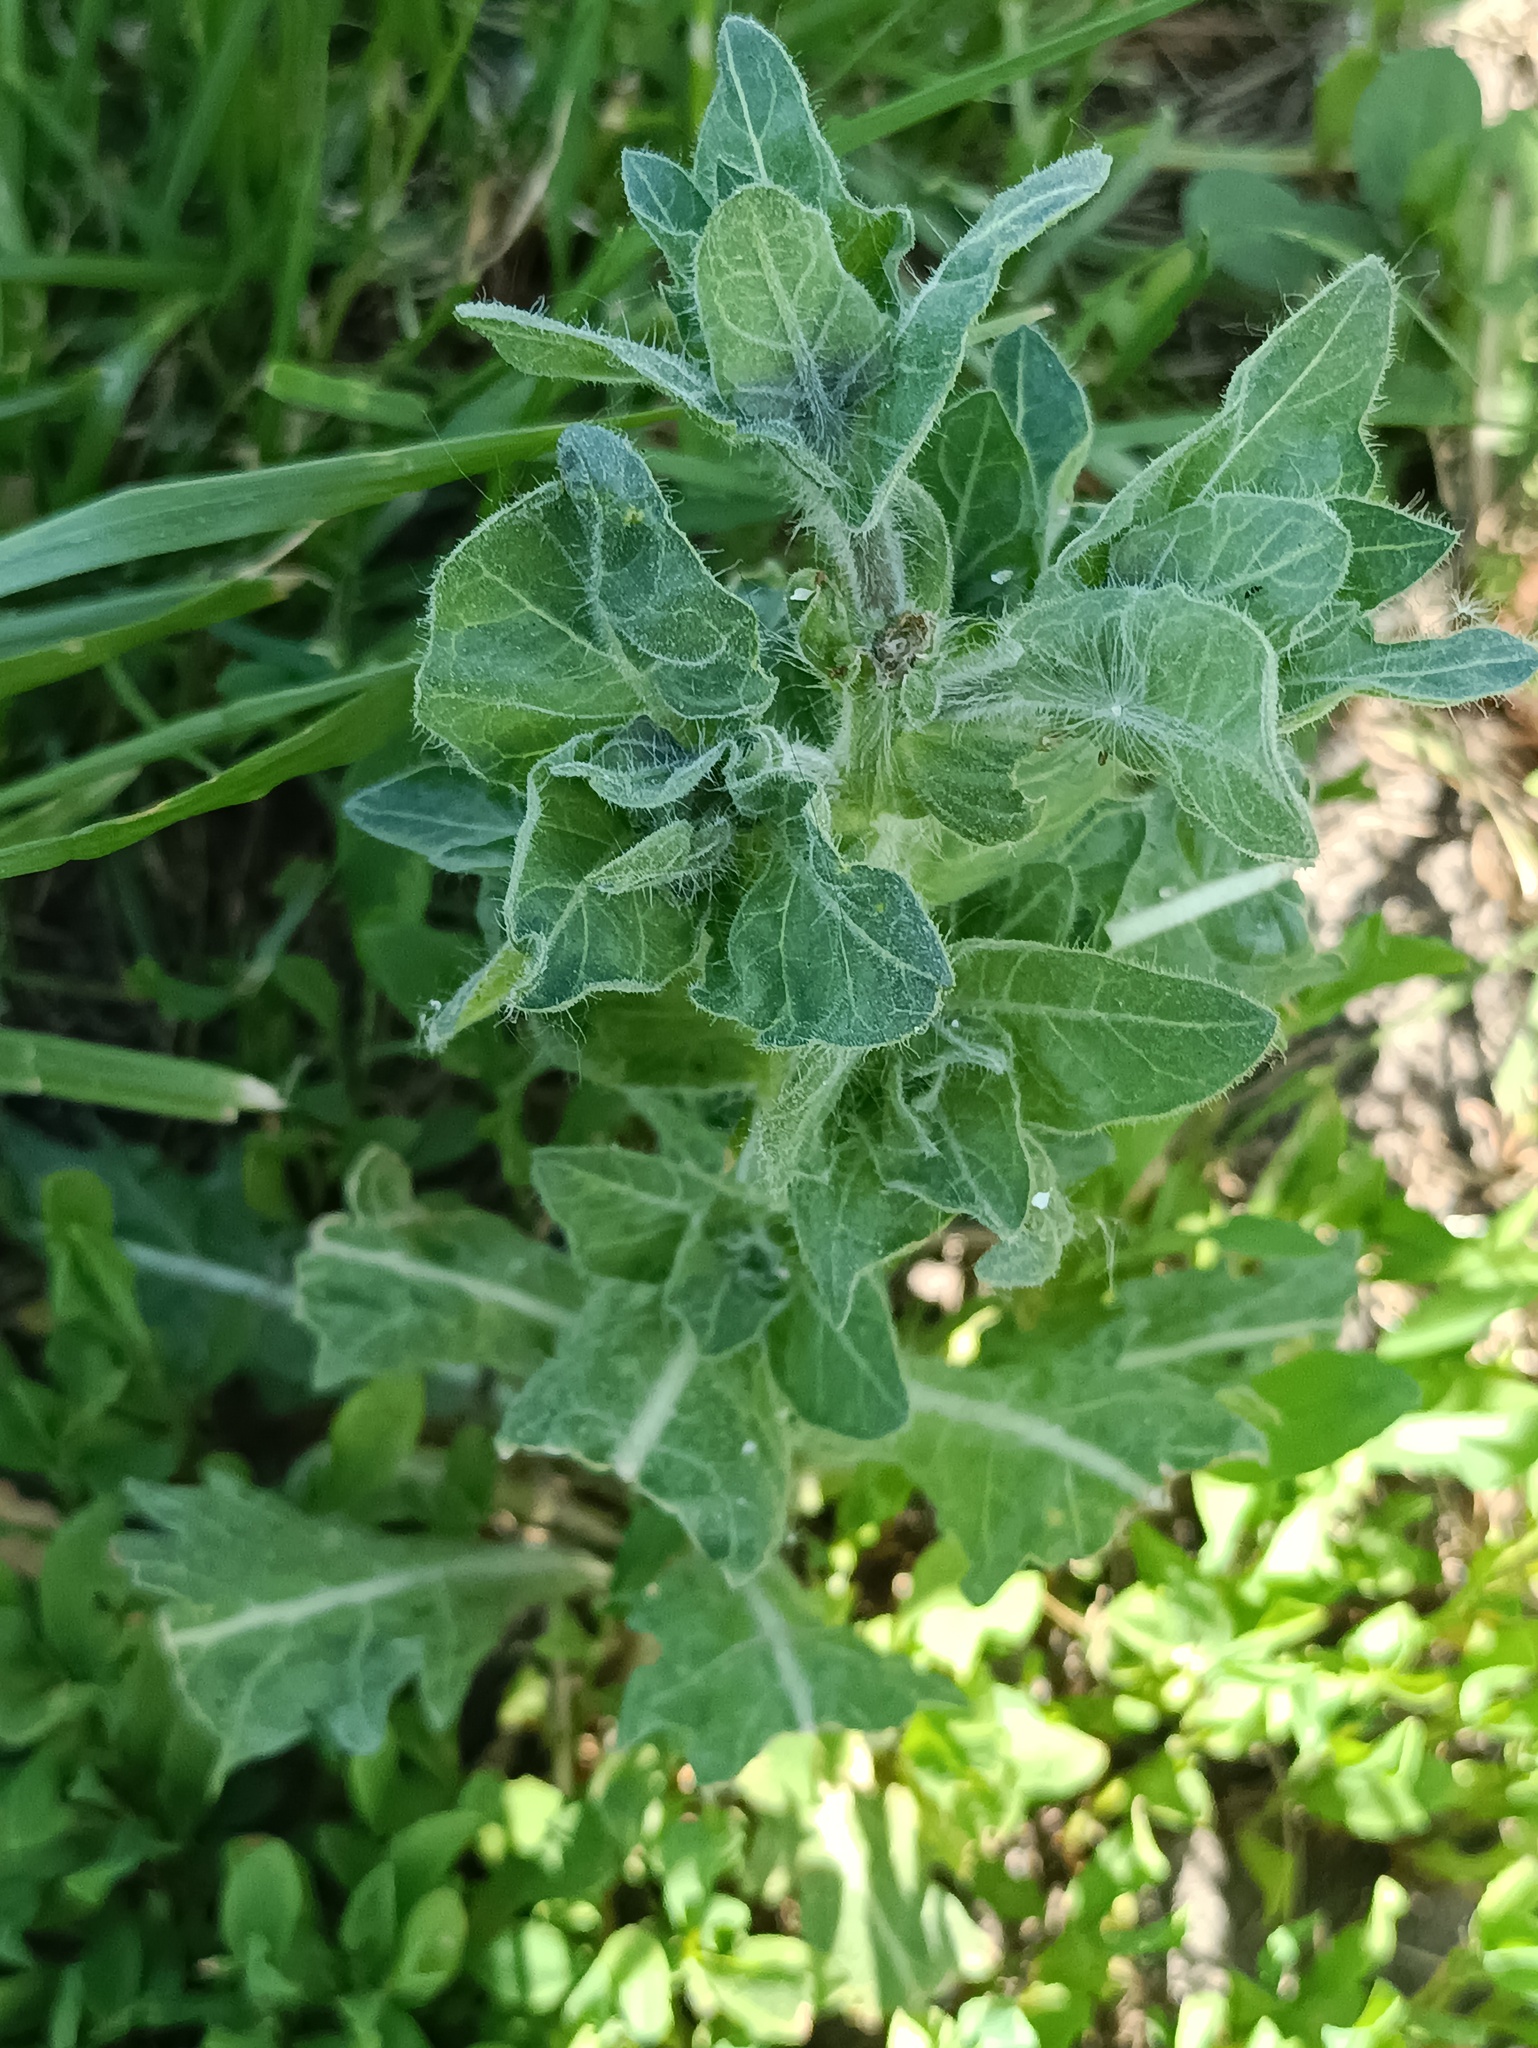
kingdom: Plantae
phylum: Tracheophyta
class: Magnoliopsida
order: Solanales
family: Solanaceae
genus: Hyoscyamus
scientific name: Hyoscyamus niger
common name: Henbane
